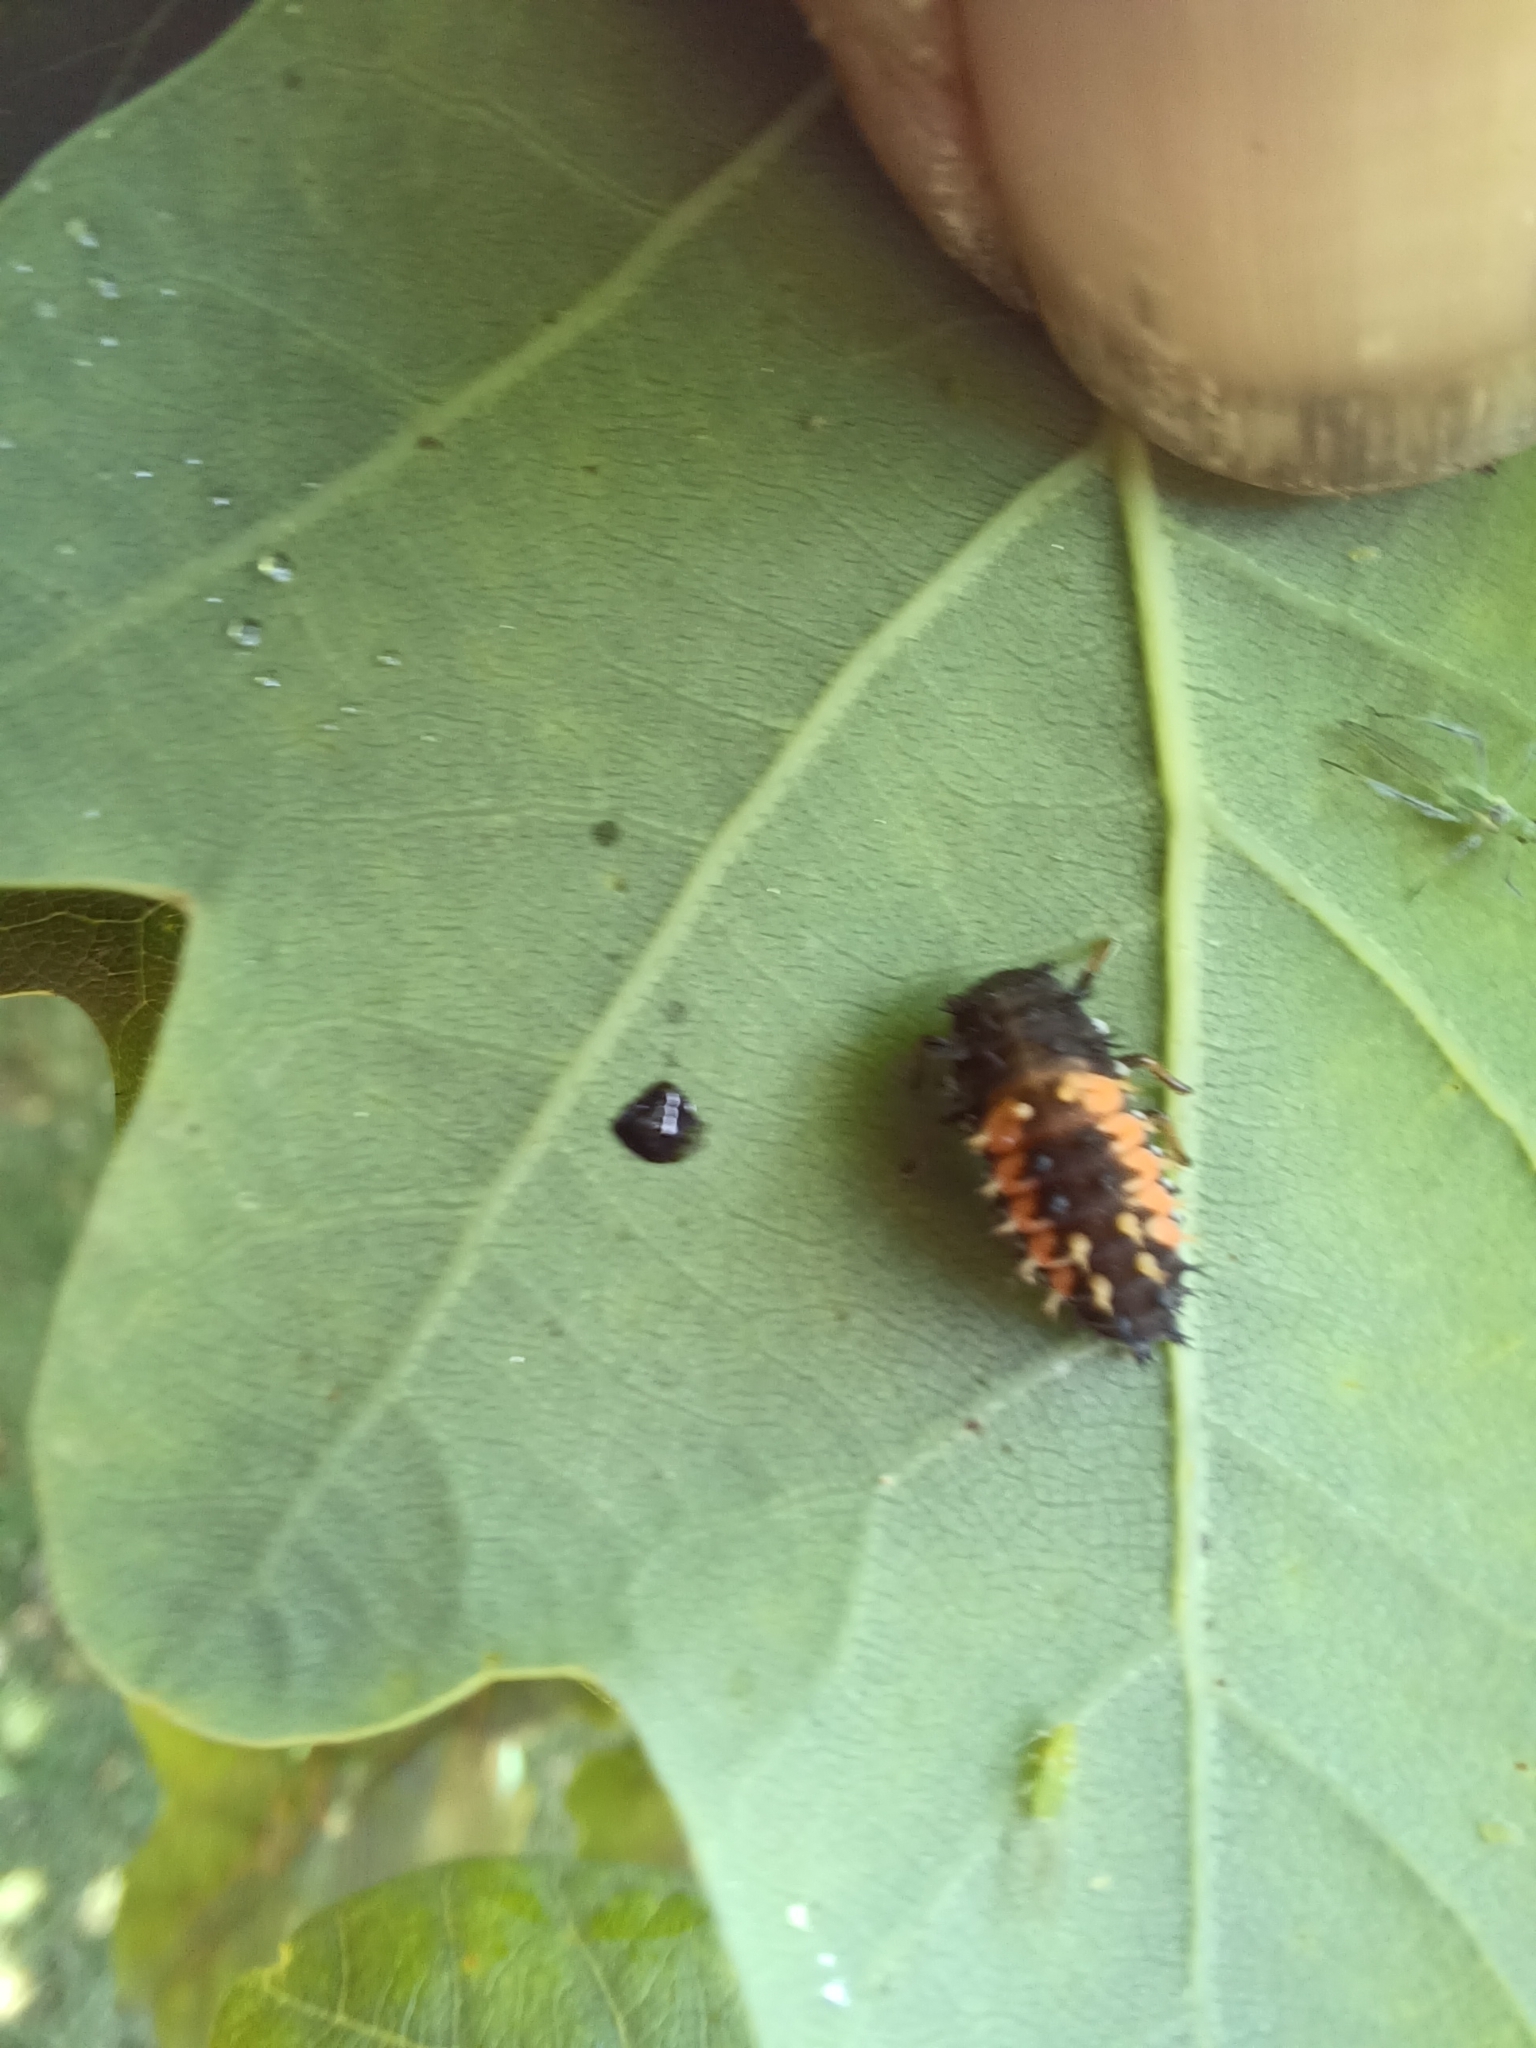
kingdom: Animalia
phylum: Arthropoda
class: Insecta
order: Coleoptera
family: Coccinellidae
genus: Harmonia
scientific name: Harmonia axyridis
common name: Harlequin ladybird
